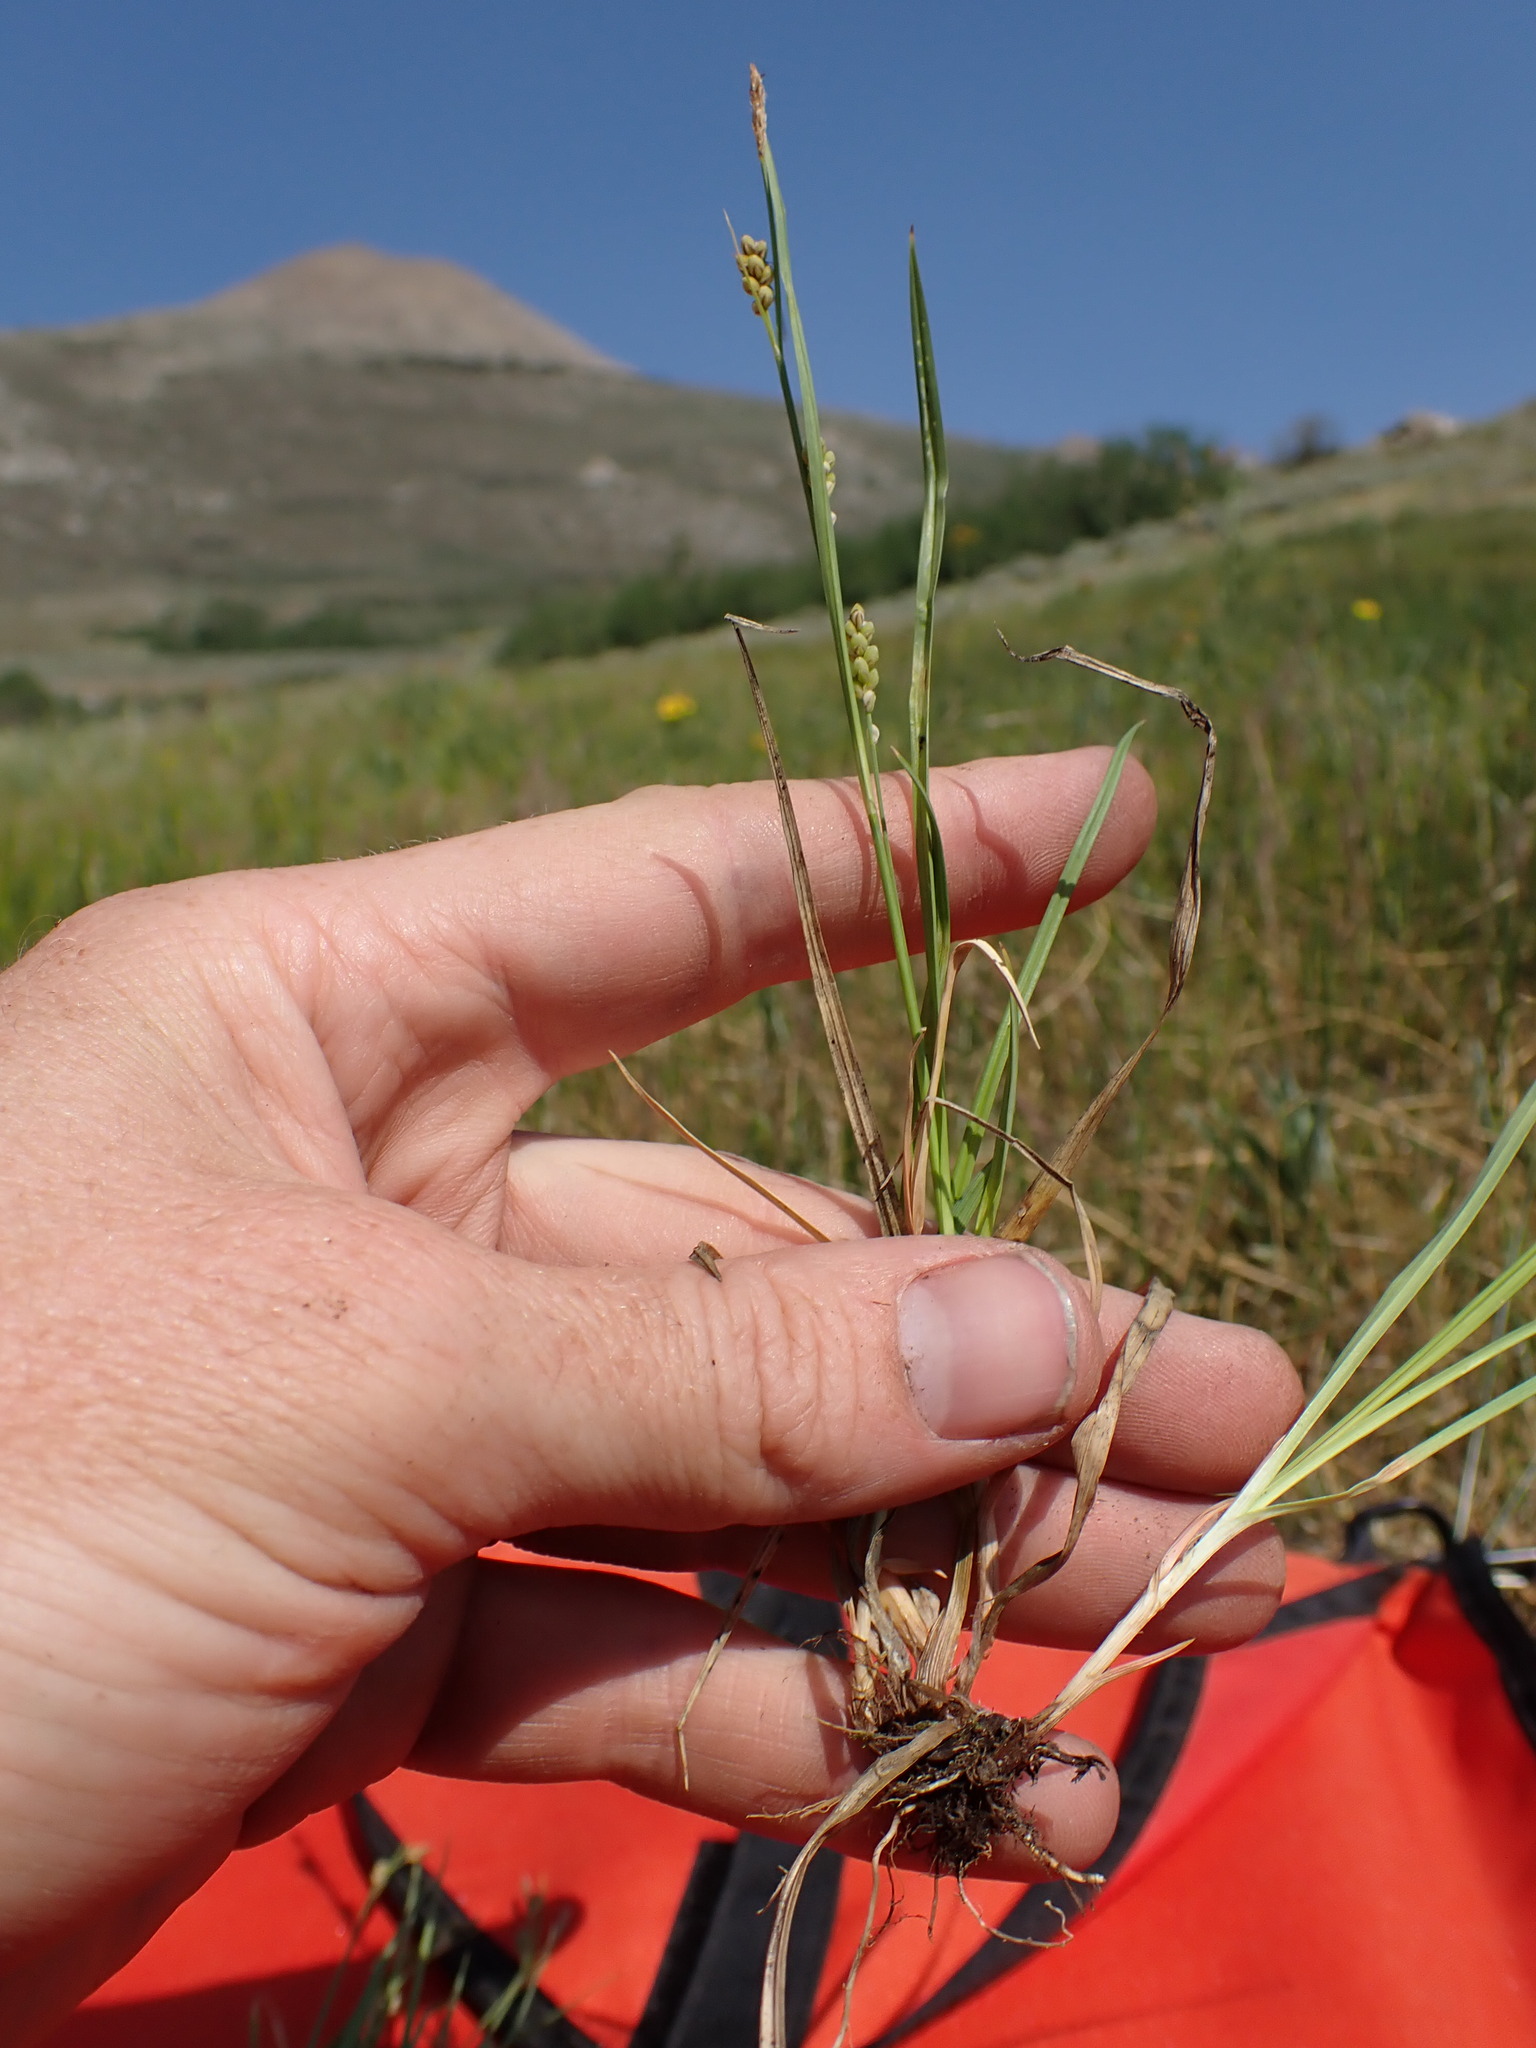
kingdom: Plantae
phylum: Tracheophyta
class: Liliopsida
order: Poales
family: Cyperaceae
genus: Carex
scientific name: Carex aurea
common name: Golden sedge
